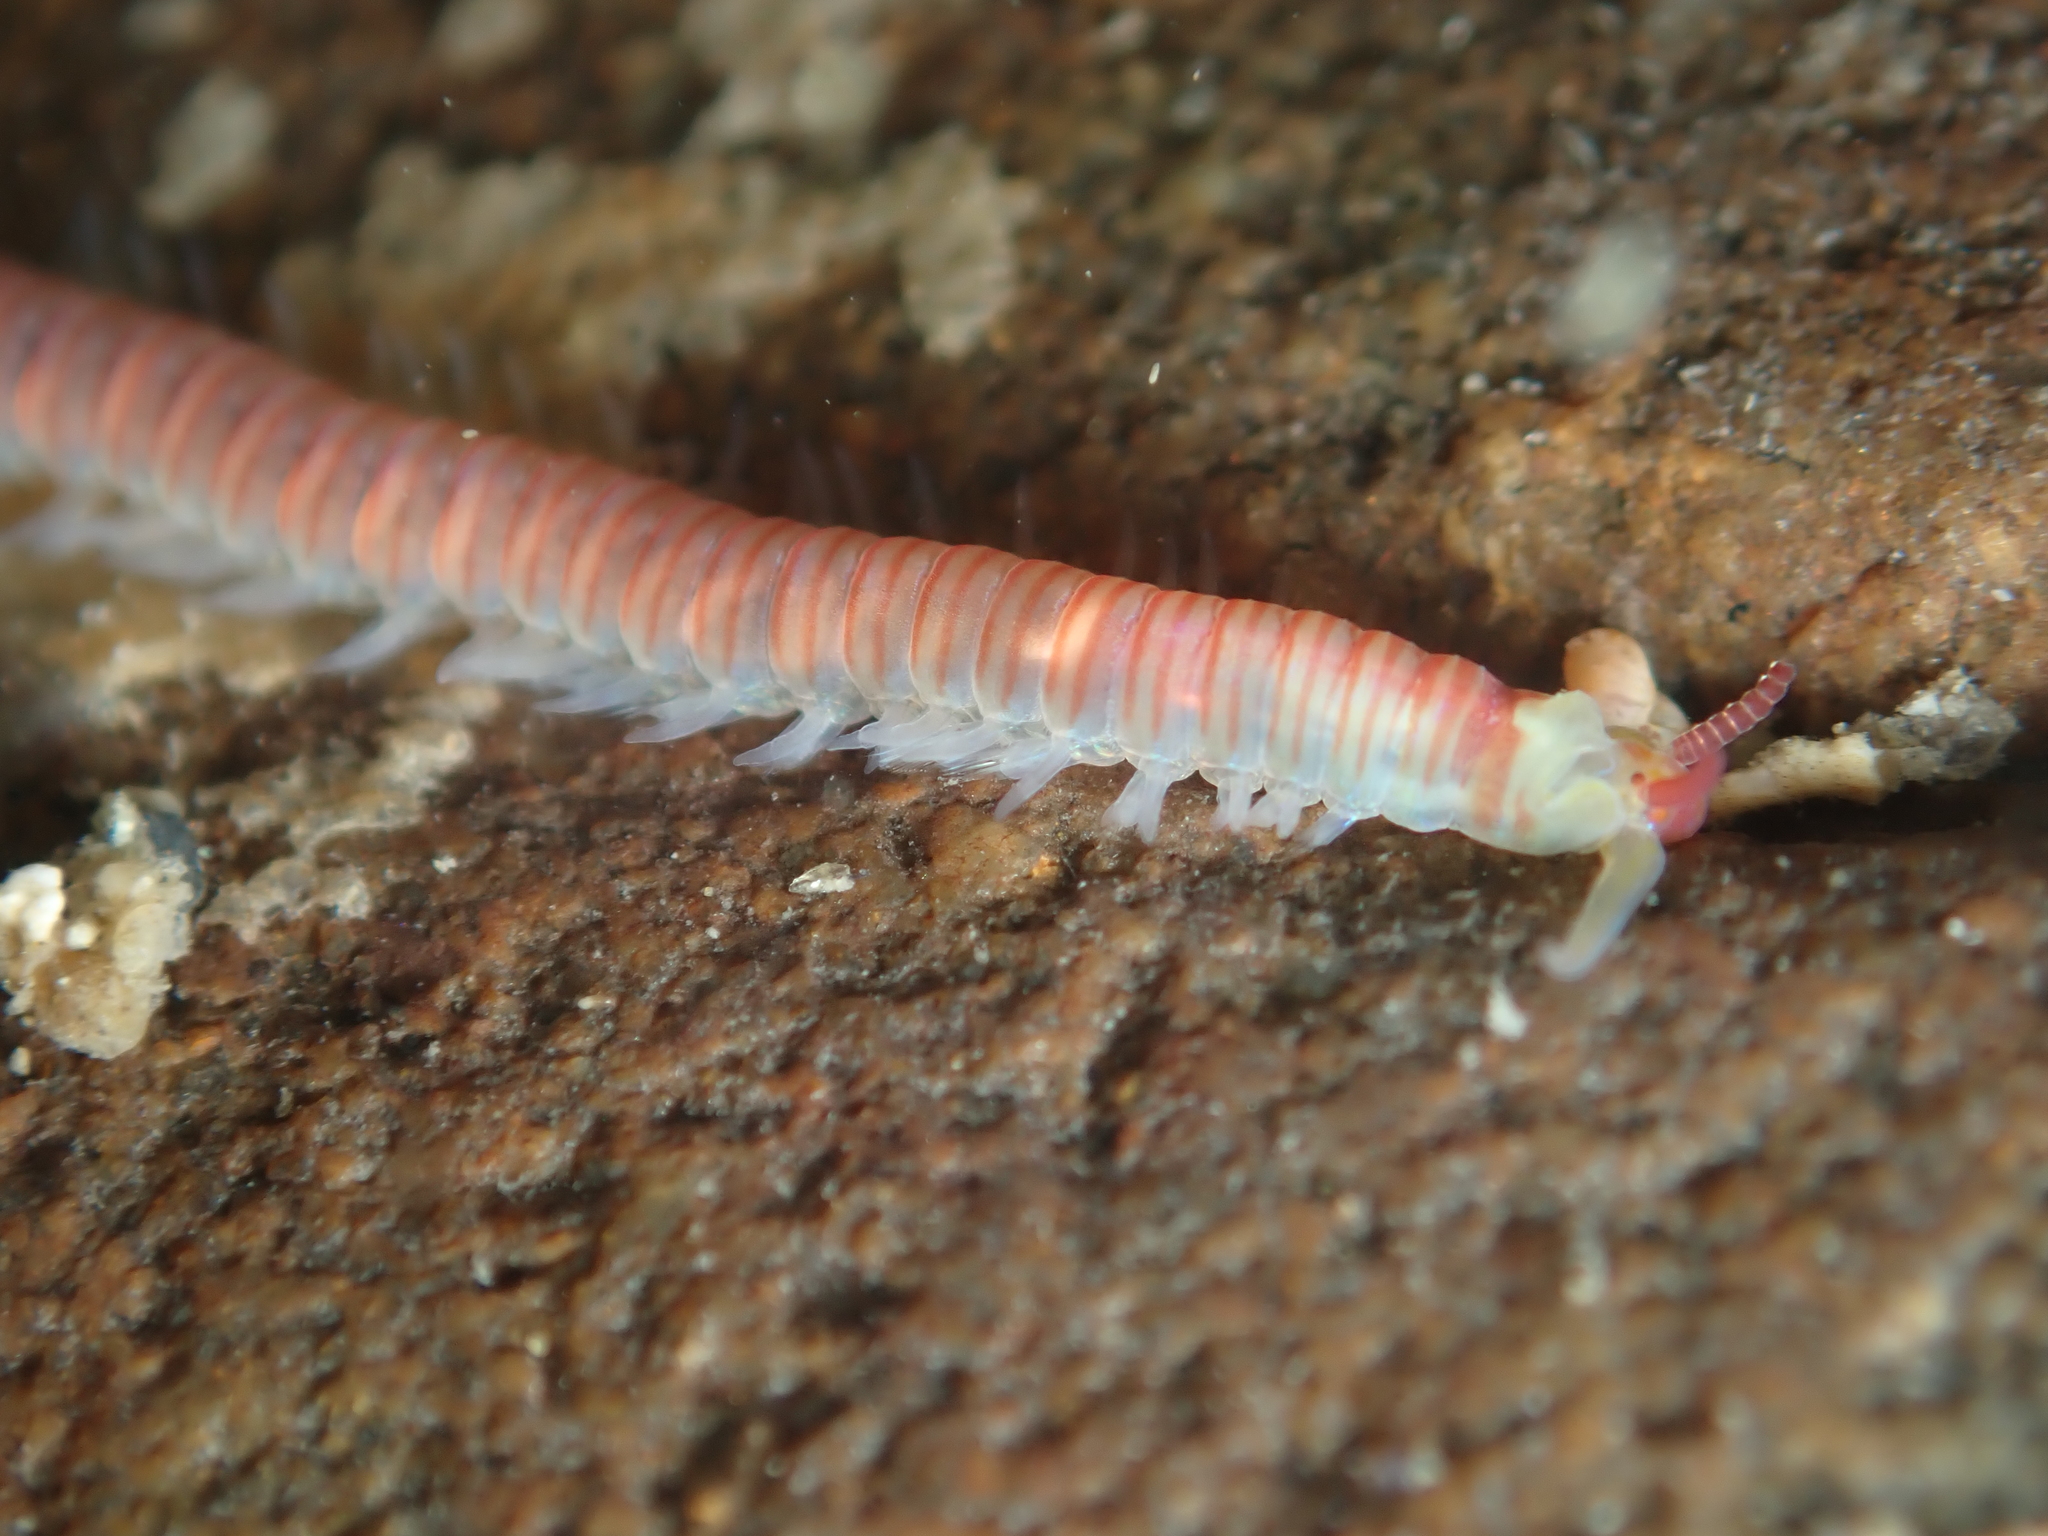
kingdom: Animalia
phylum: Annelida
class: Polychaeta
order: Eunicida
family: Dorvilleidae
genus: Dorvillea
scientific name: Dorvillea australiensis
